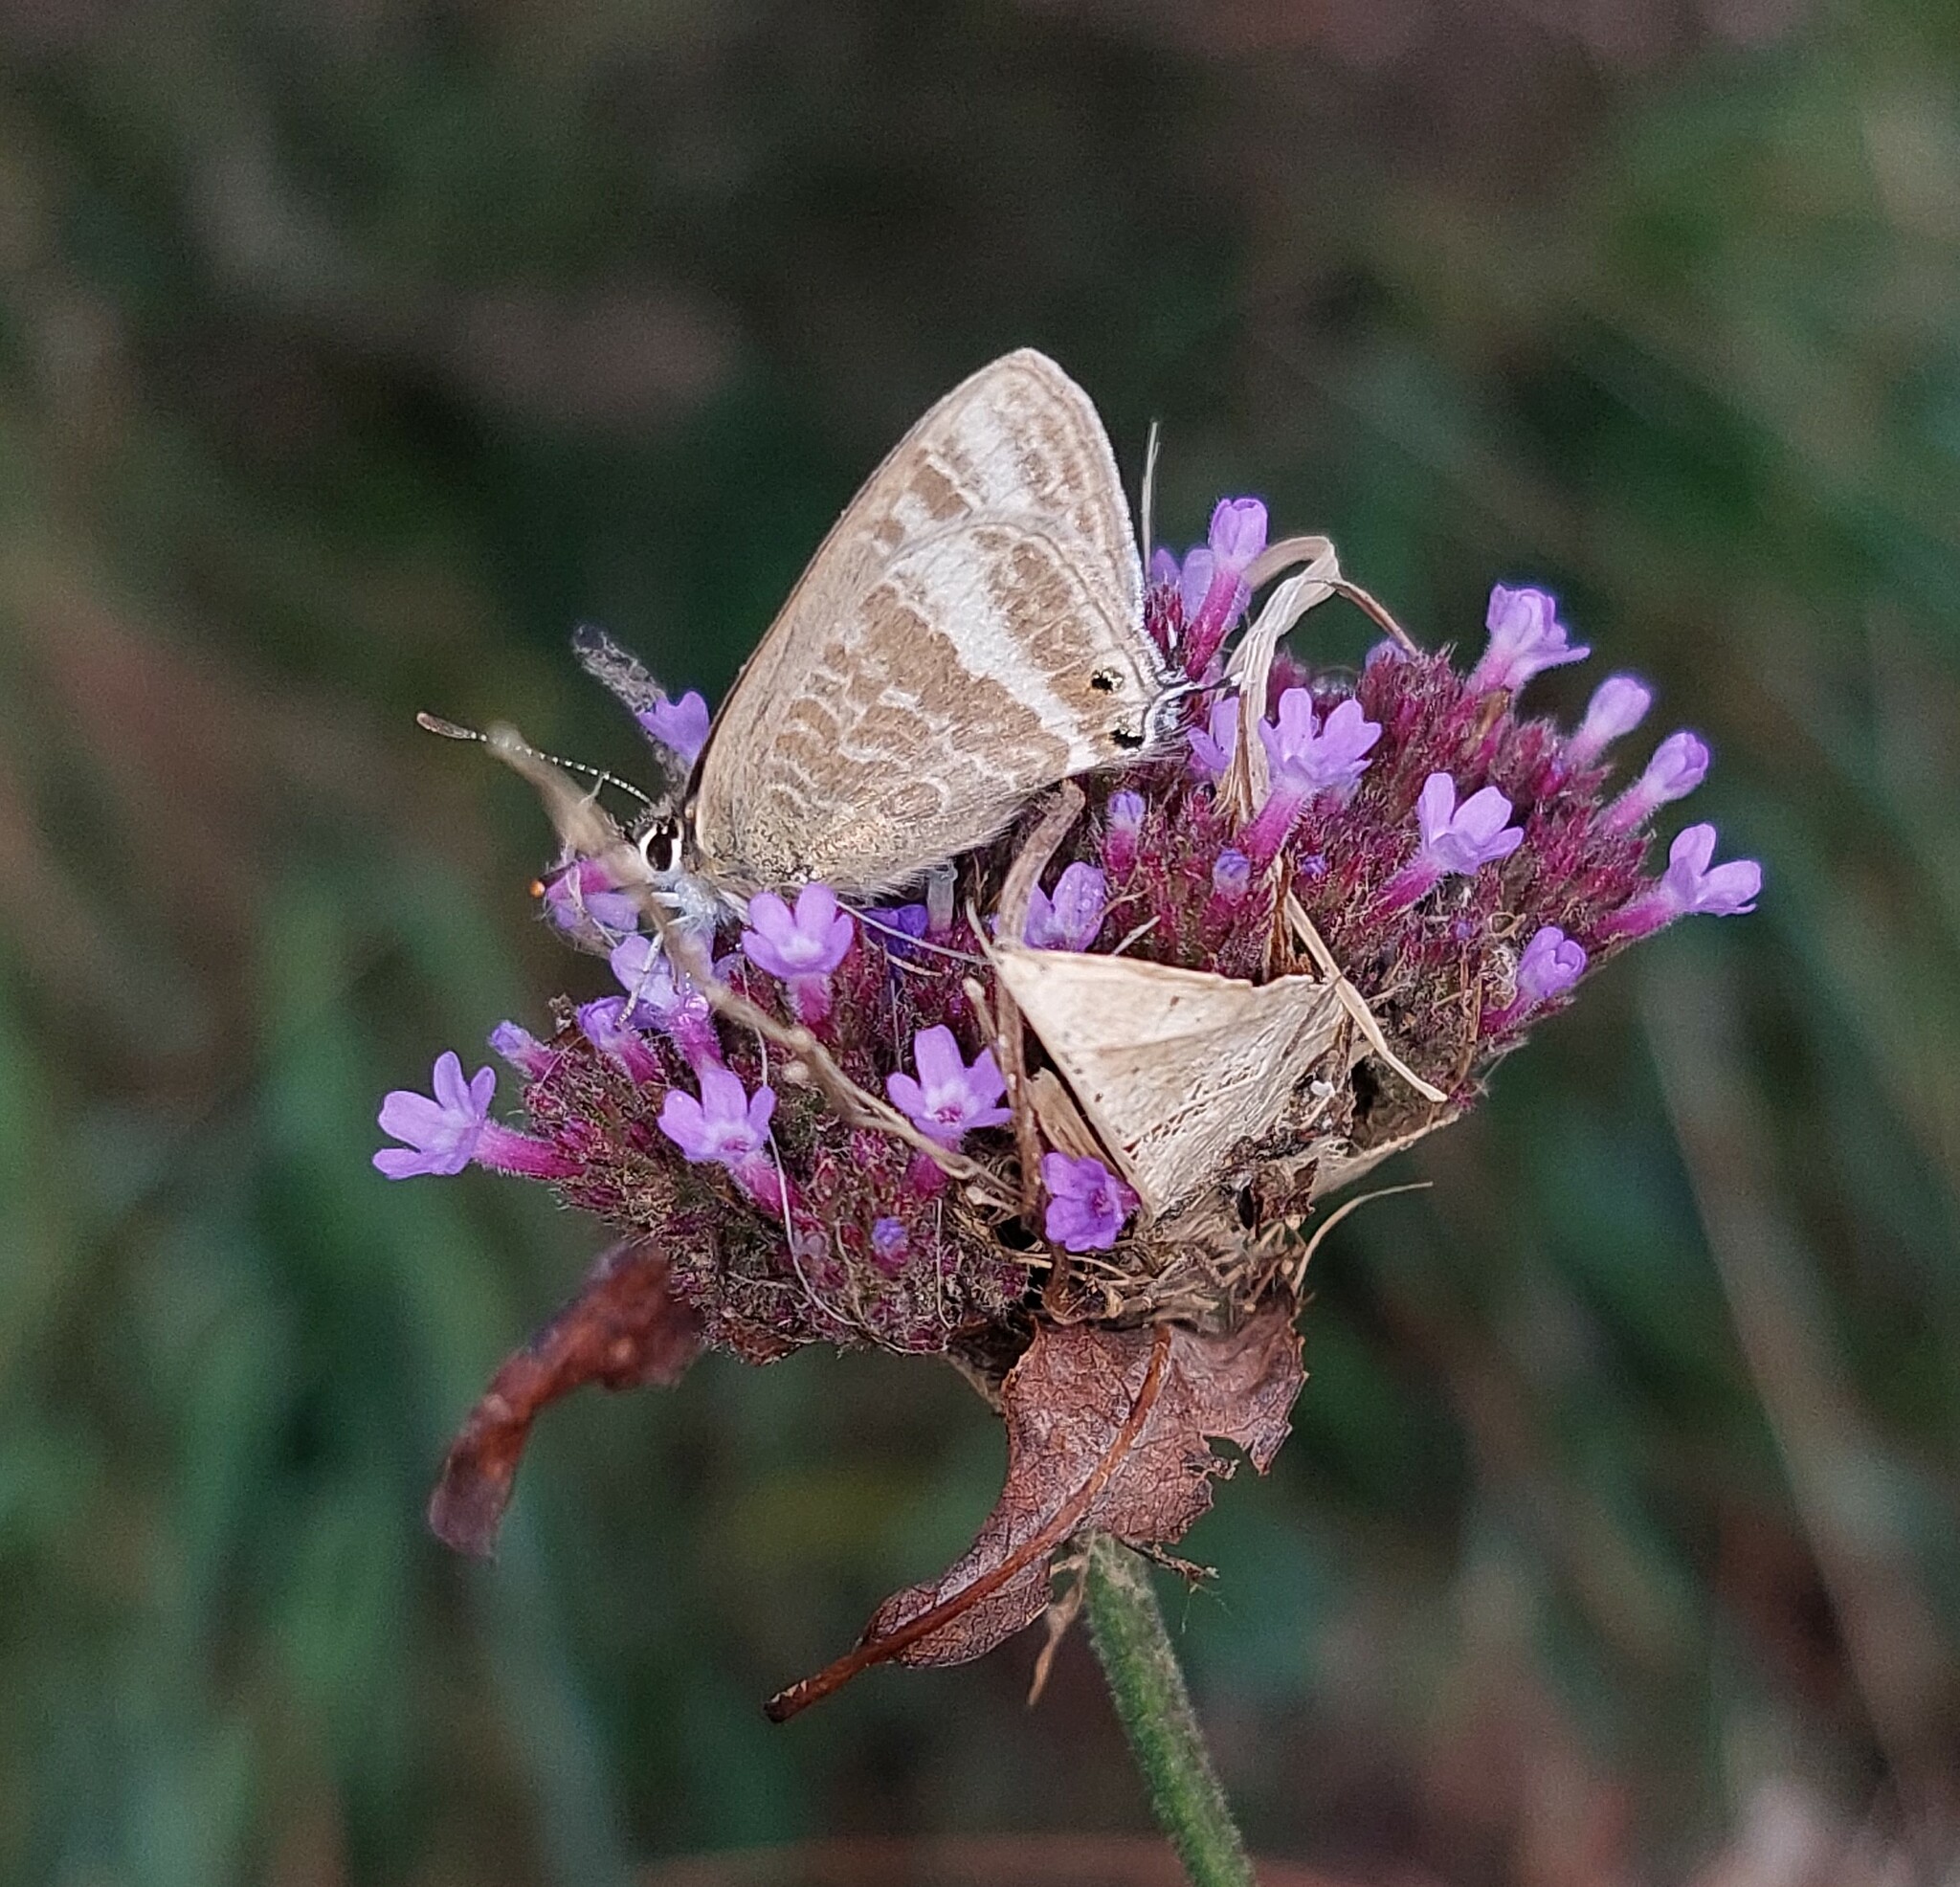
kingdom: Animalia
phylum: Arthropoda
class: Insecta
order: Lepidoptera
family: Lycaenidae
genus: Lampides
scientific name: Lampides boeticus
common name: Long-tailed blue
